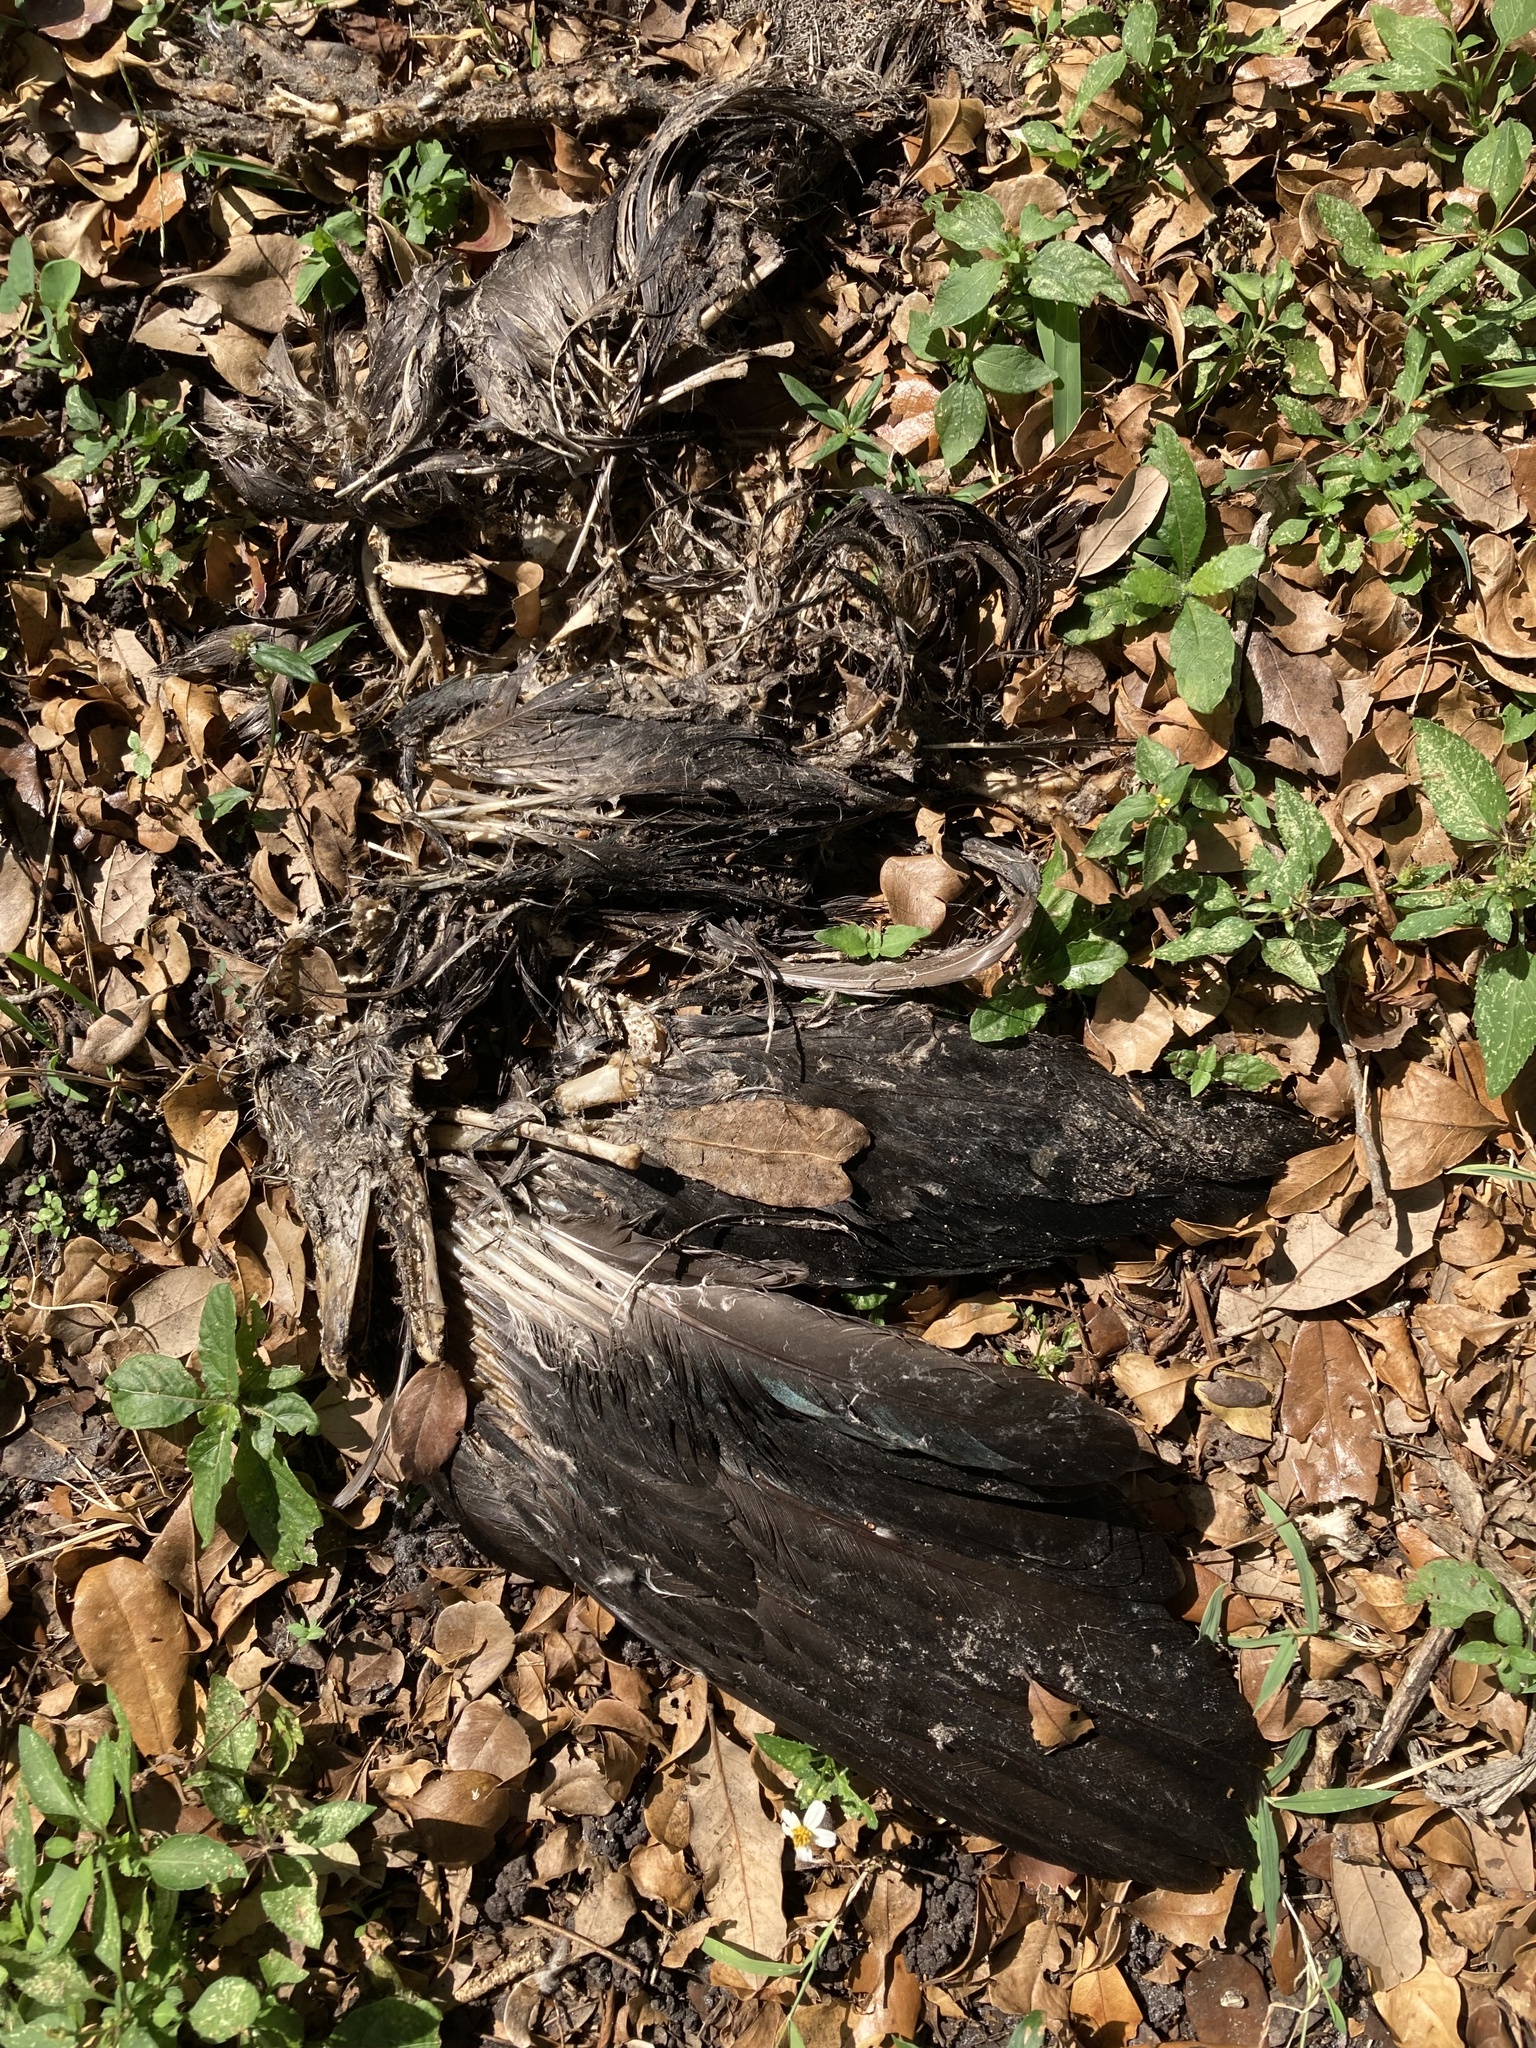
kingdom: Animalia
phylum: Chordata
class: Aves
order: Anseriformes
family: Anatidae
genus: Cairina
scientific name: Cairina moschata
